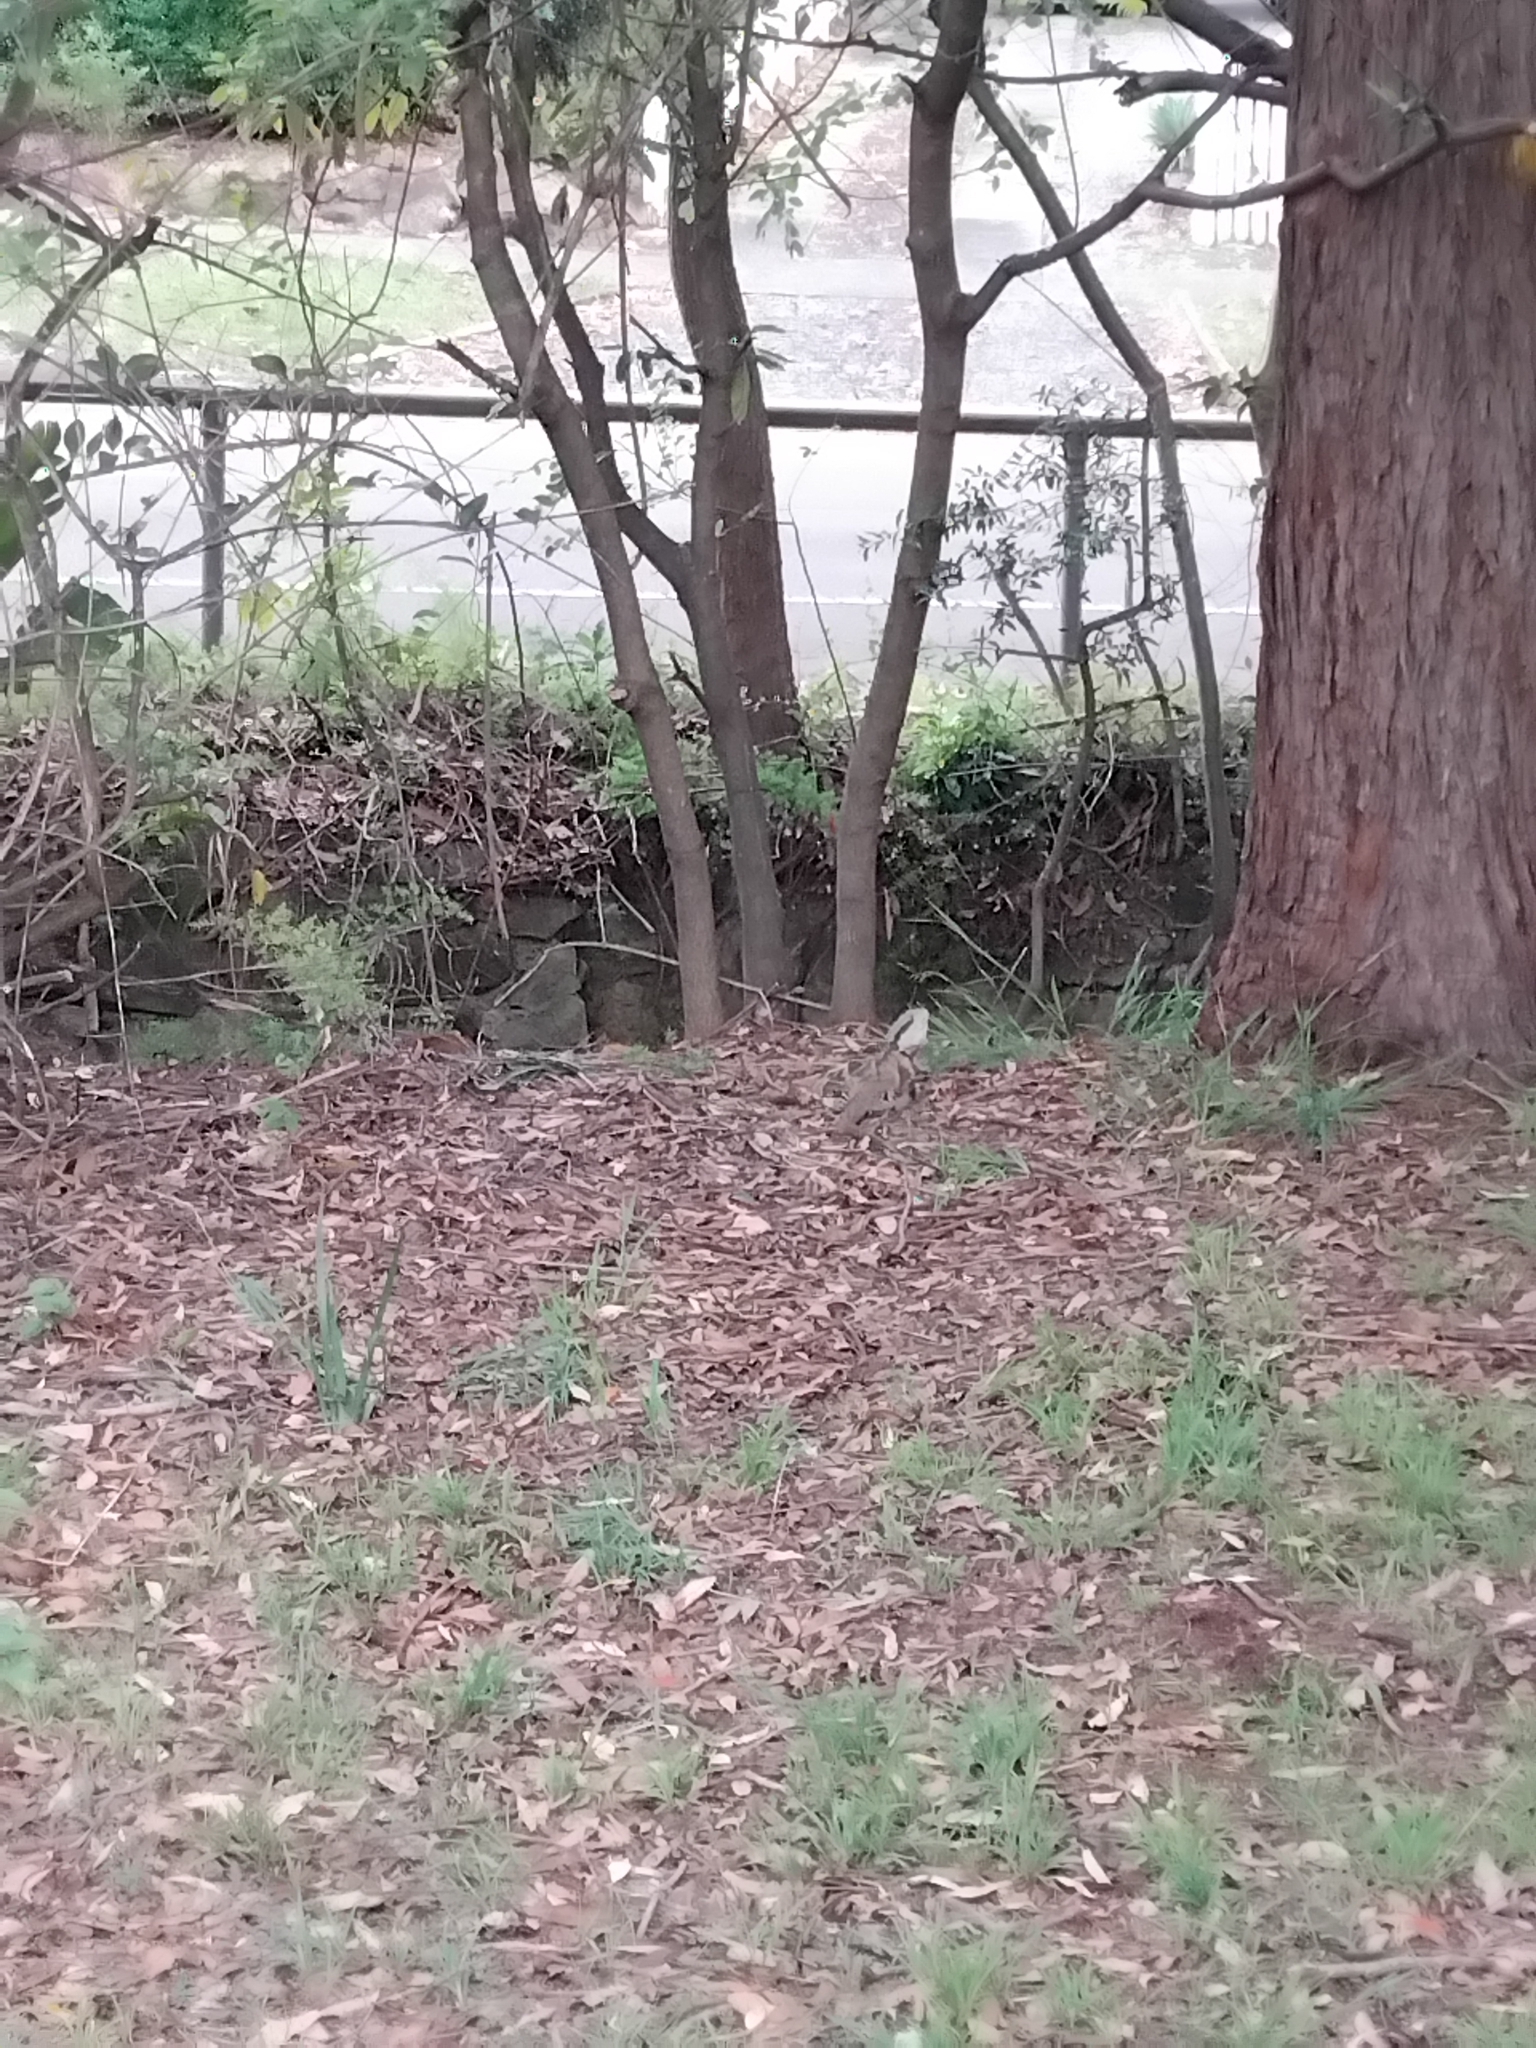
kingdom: Animalia
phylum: Chordata
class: Squamata
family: Agamidae
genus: Intellagama
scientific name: Intellagama lesueurii
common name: Eastern water dragon
